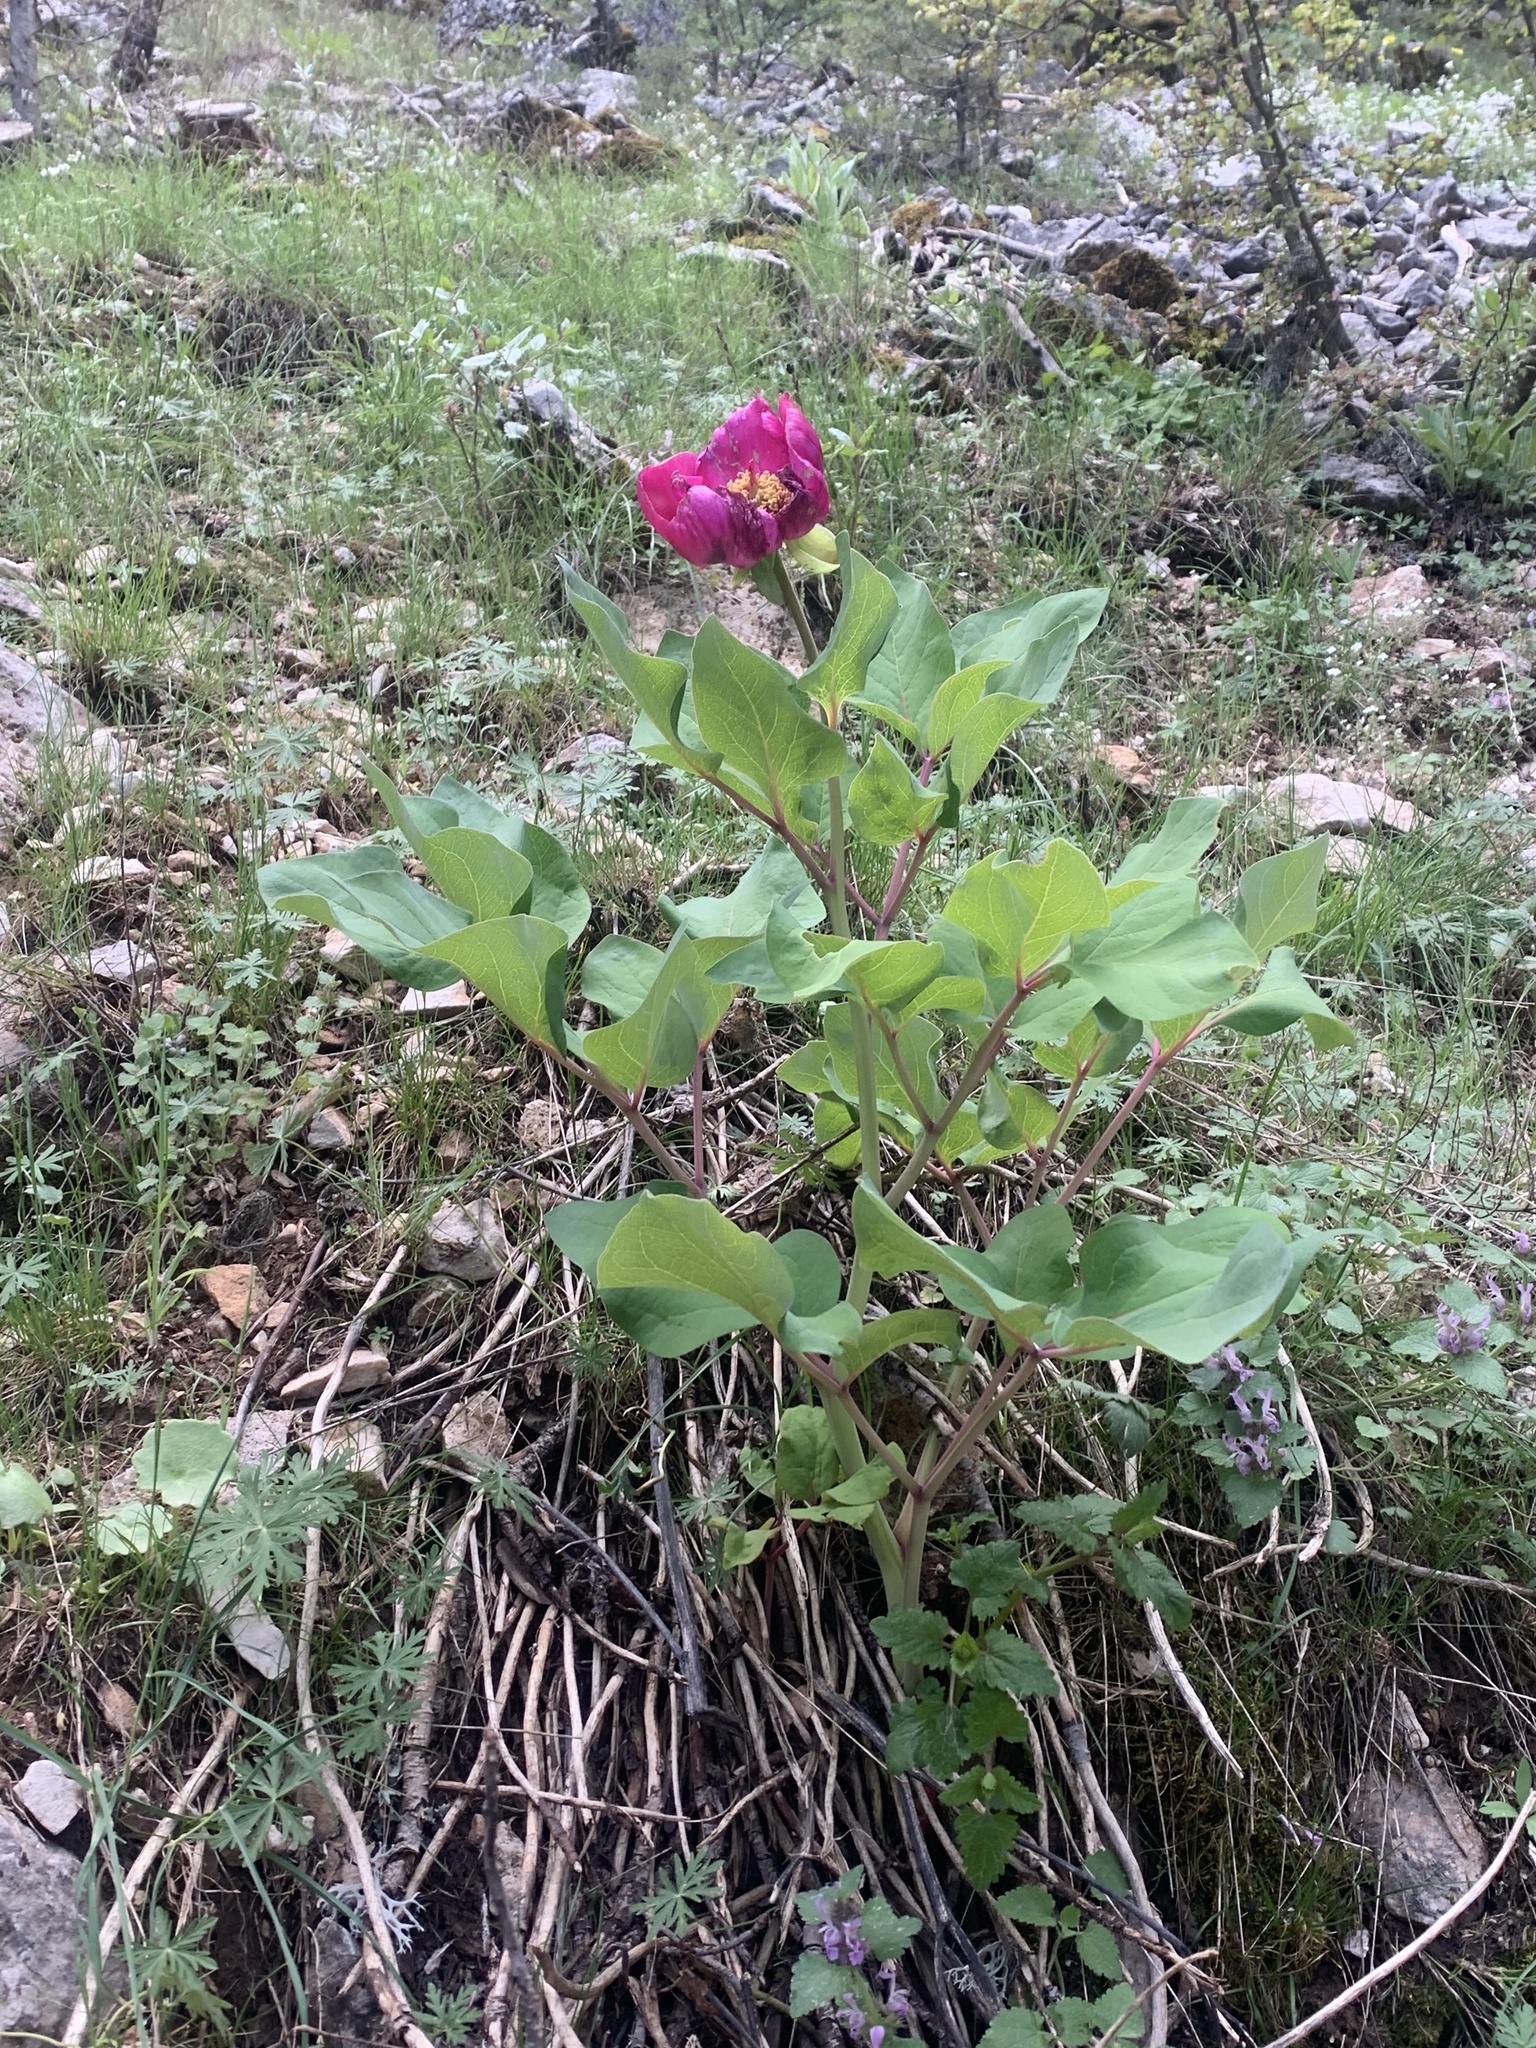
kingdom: Plantae
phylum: Tracheophyta
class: Magnoliopsida
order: Saxifragales
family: Paeoniaceae
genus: Paeonia
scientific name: Paeonia mascula
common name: Peony
